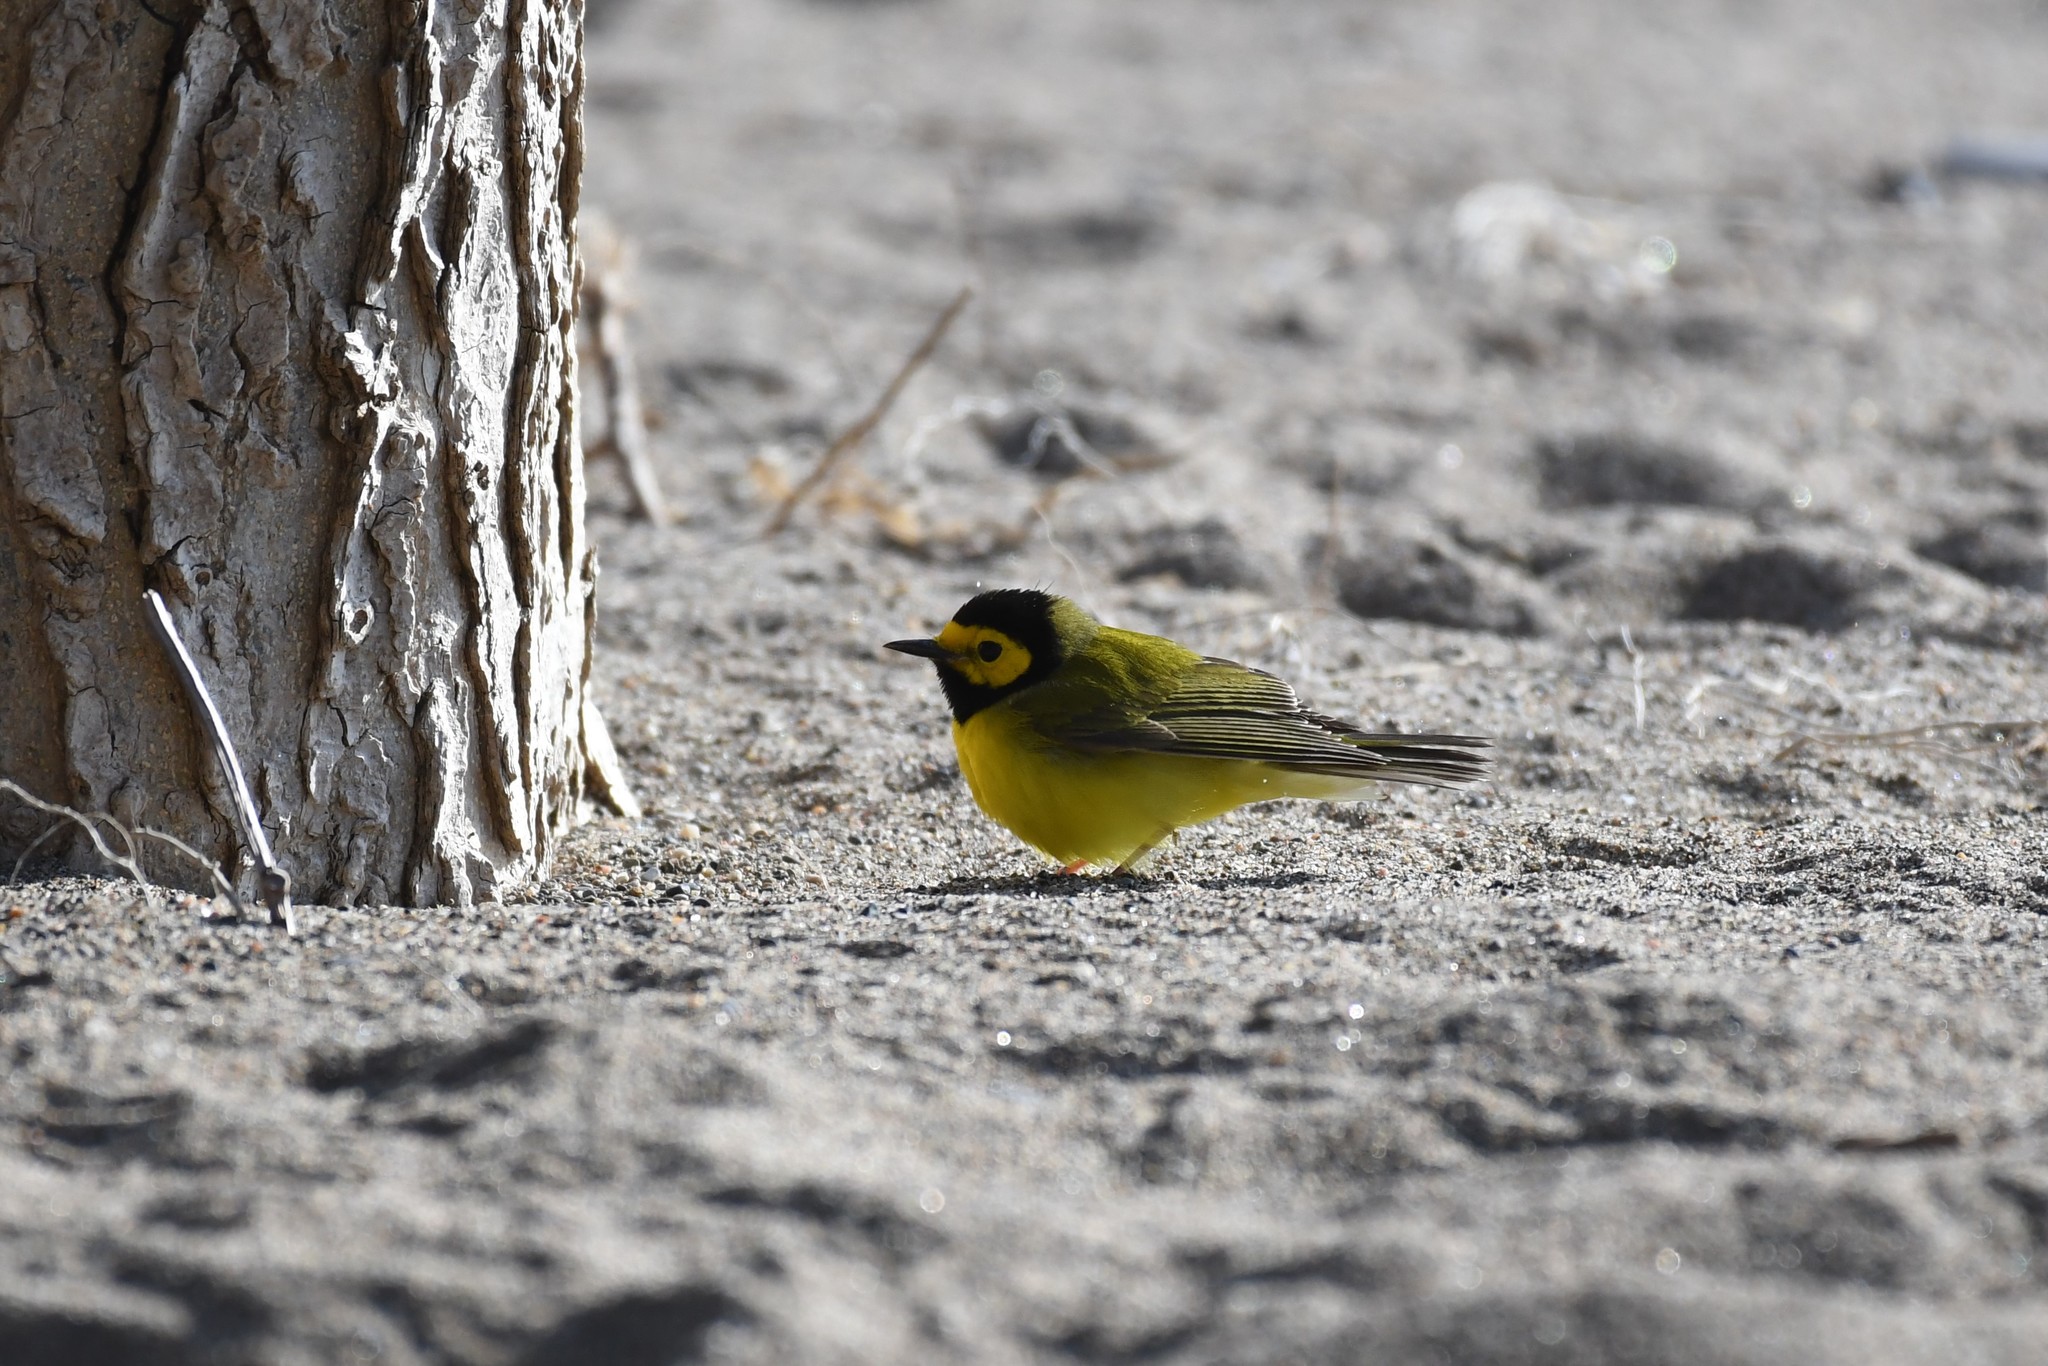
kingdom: Animalia
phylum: Chordata
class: Aves
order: Passeriformes
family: Parulidae
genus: Setophaga
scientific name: Setophaga citrina
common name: Hooded warbler
